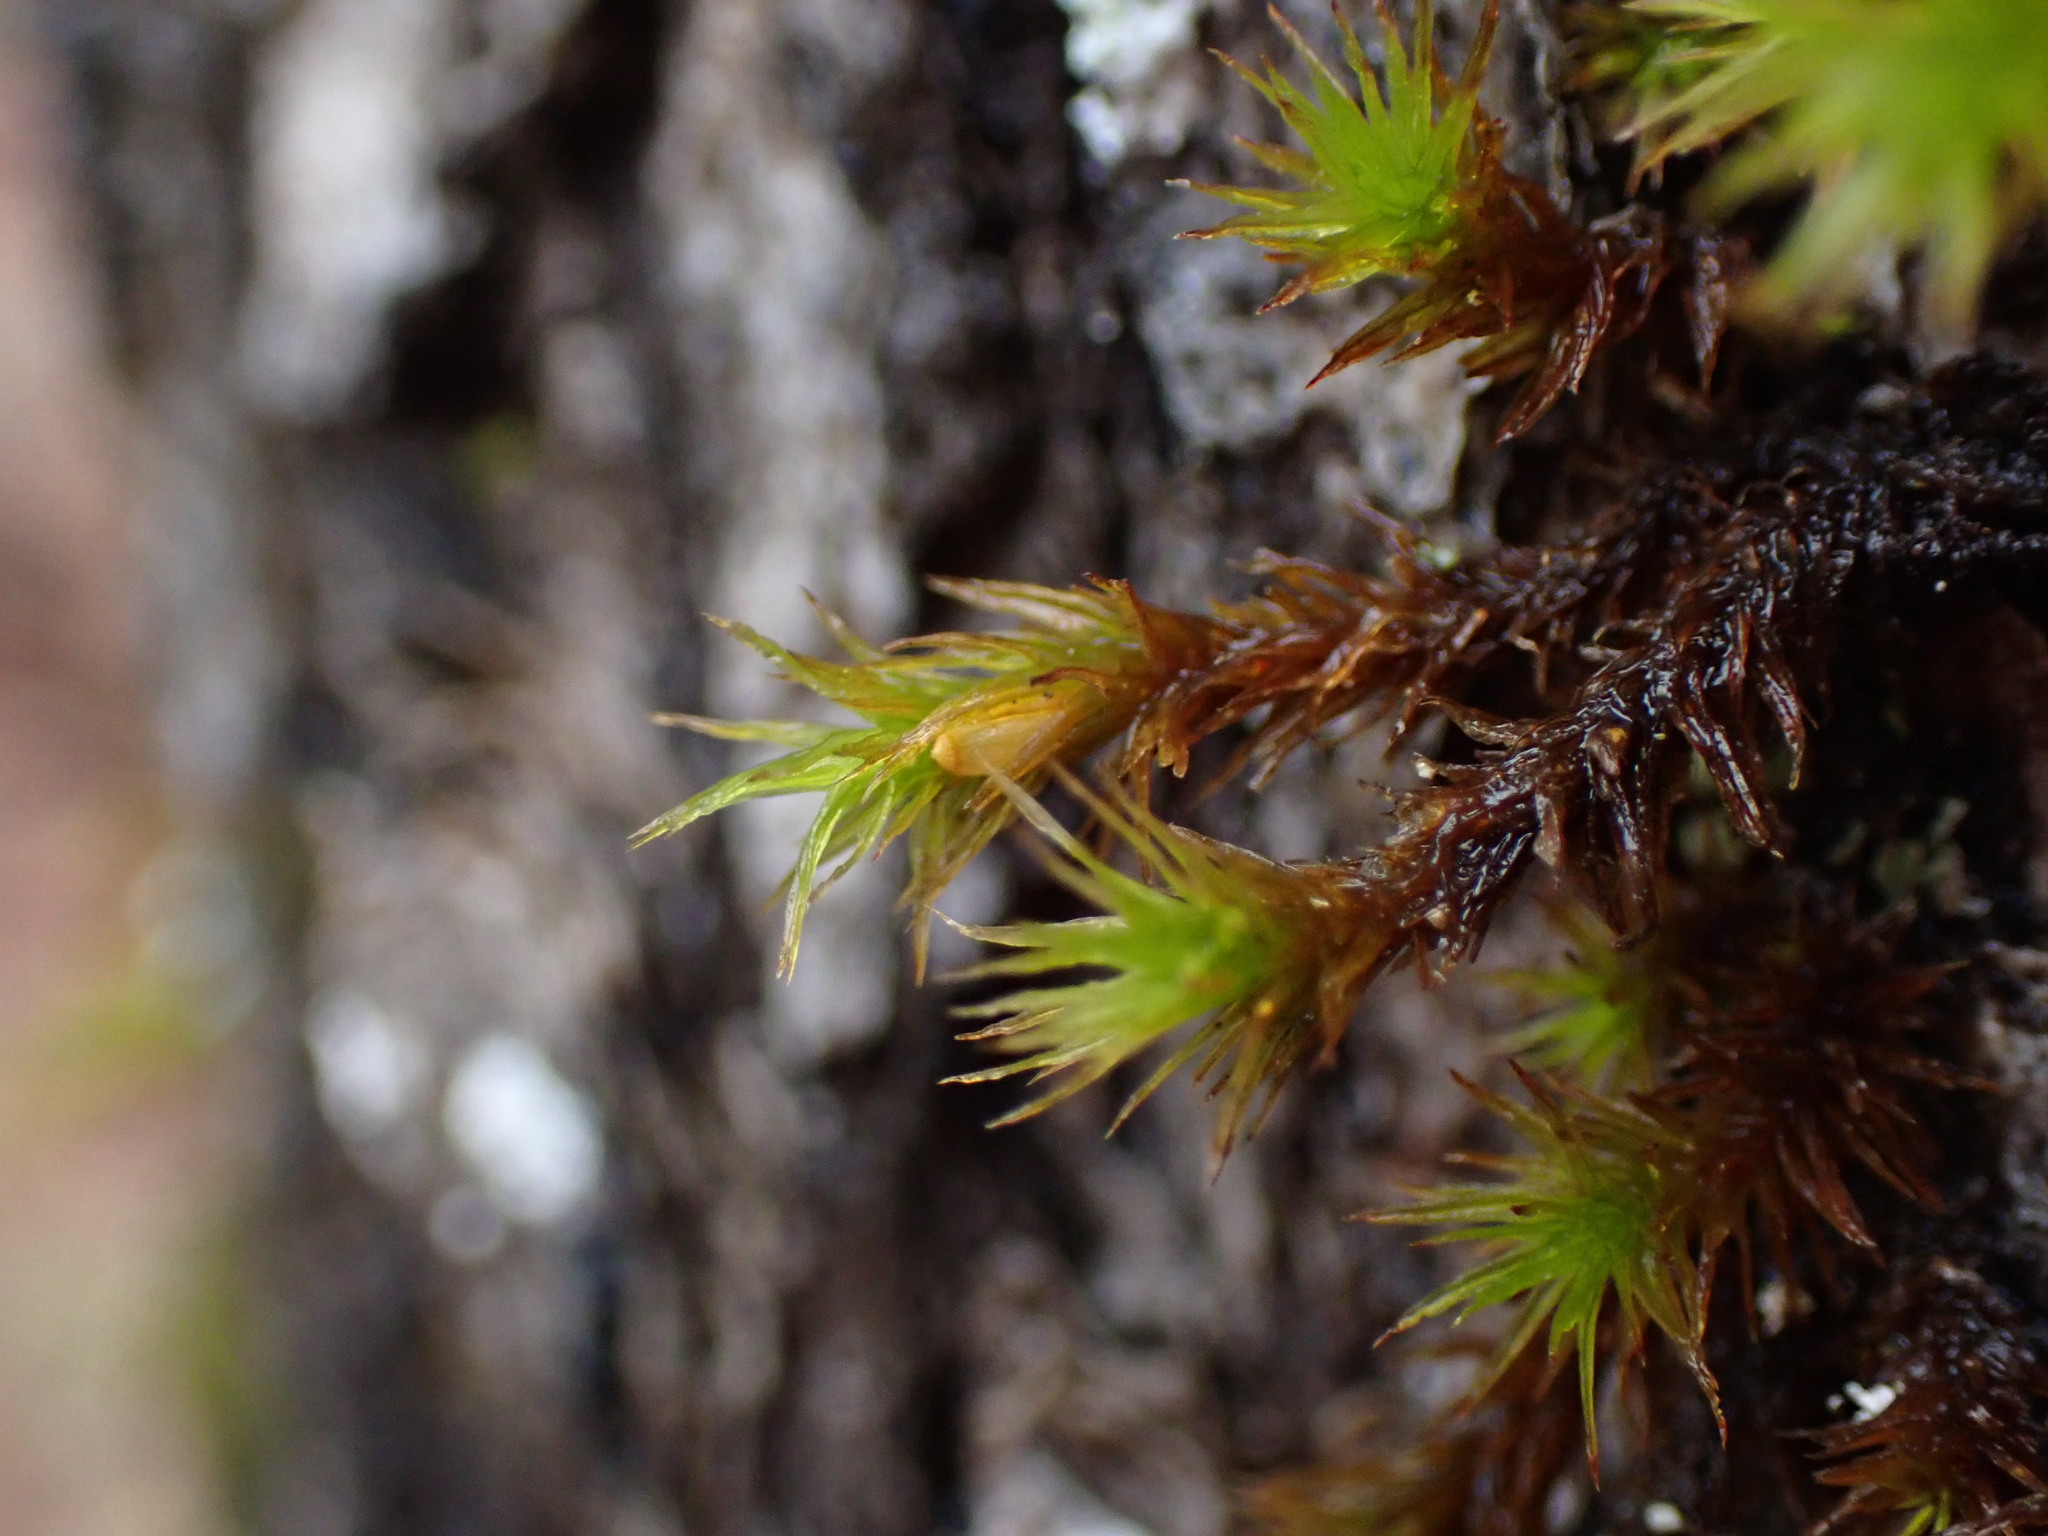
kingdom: Plantae
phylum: Bryophyta
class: Bryopsida
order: Orthotrichales
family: Orthotrichaceae
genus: Pulvigera
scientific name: Pulvigera papillosa
